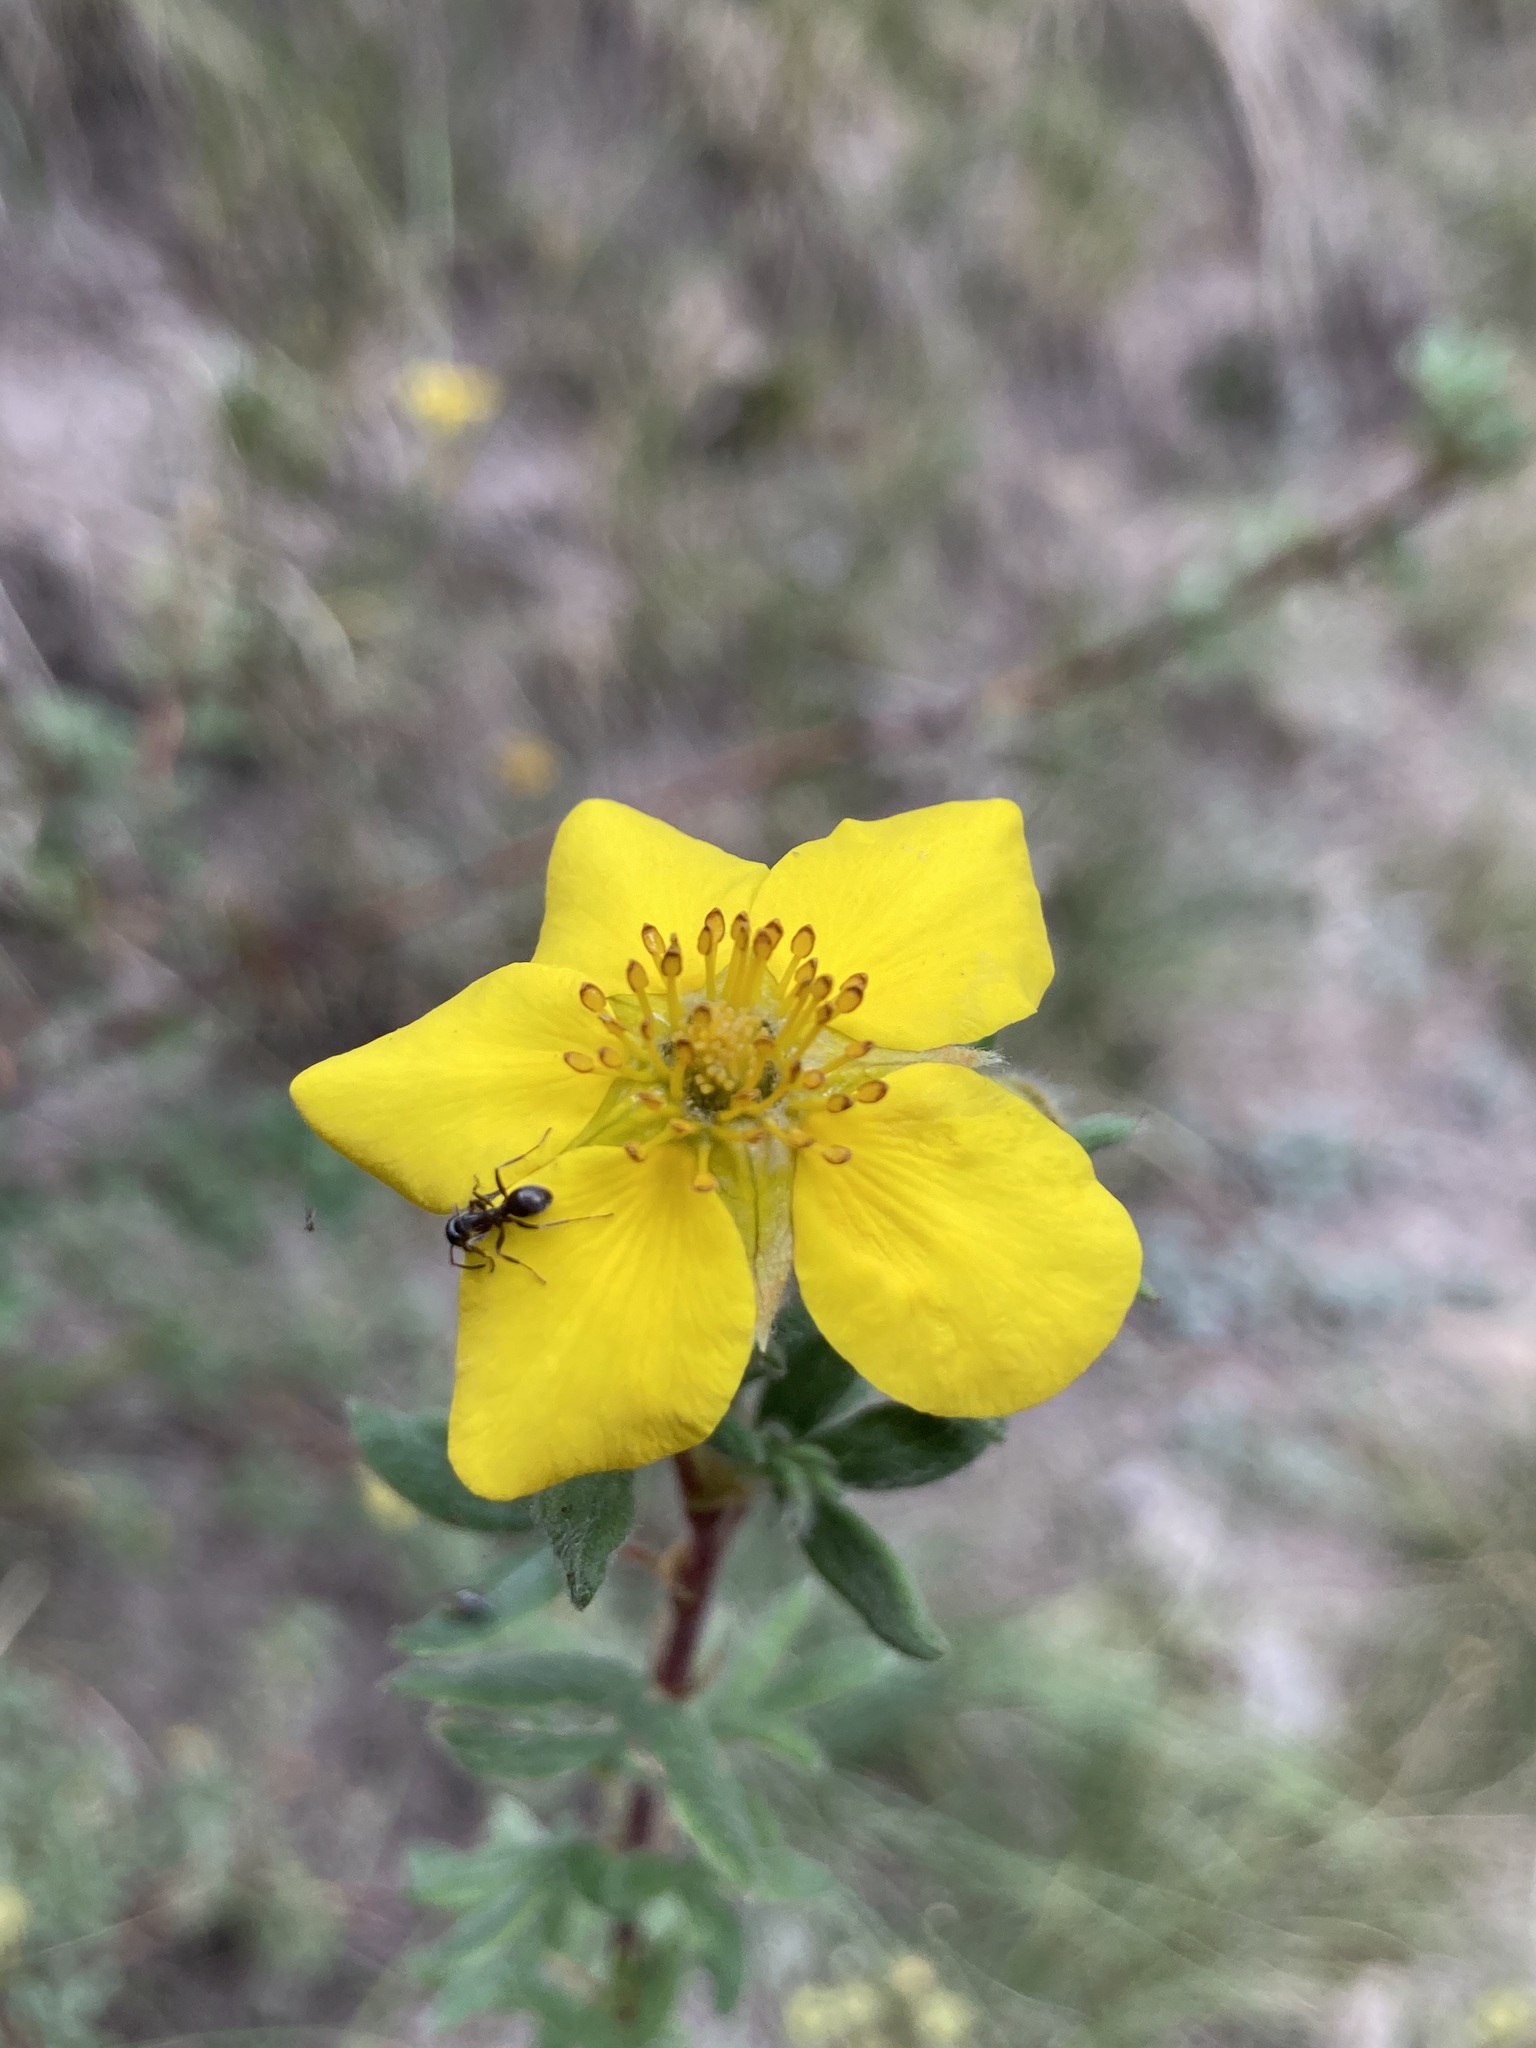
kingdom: Plantae
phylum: Tracheophyta
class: Magnoliopsida
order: Rosales
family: Rosaceae
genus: Dasiphora
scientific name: Dasiphora fruticosa
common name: Shrubby cinquefoil
